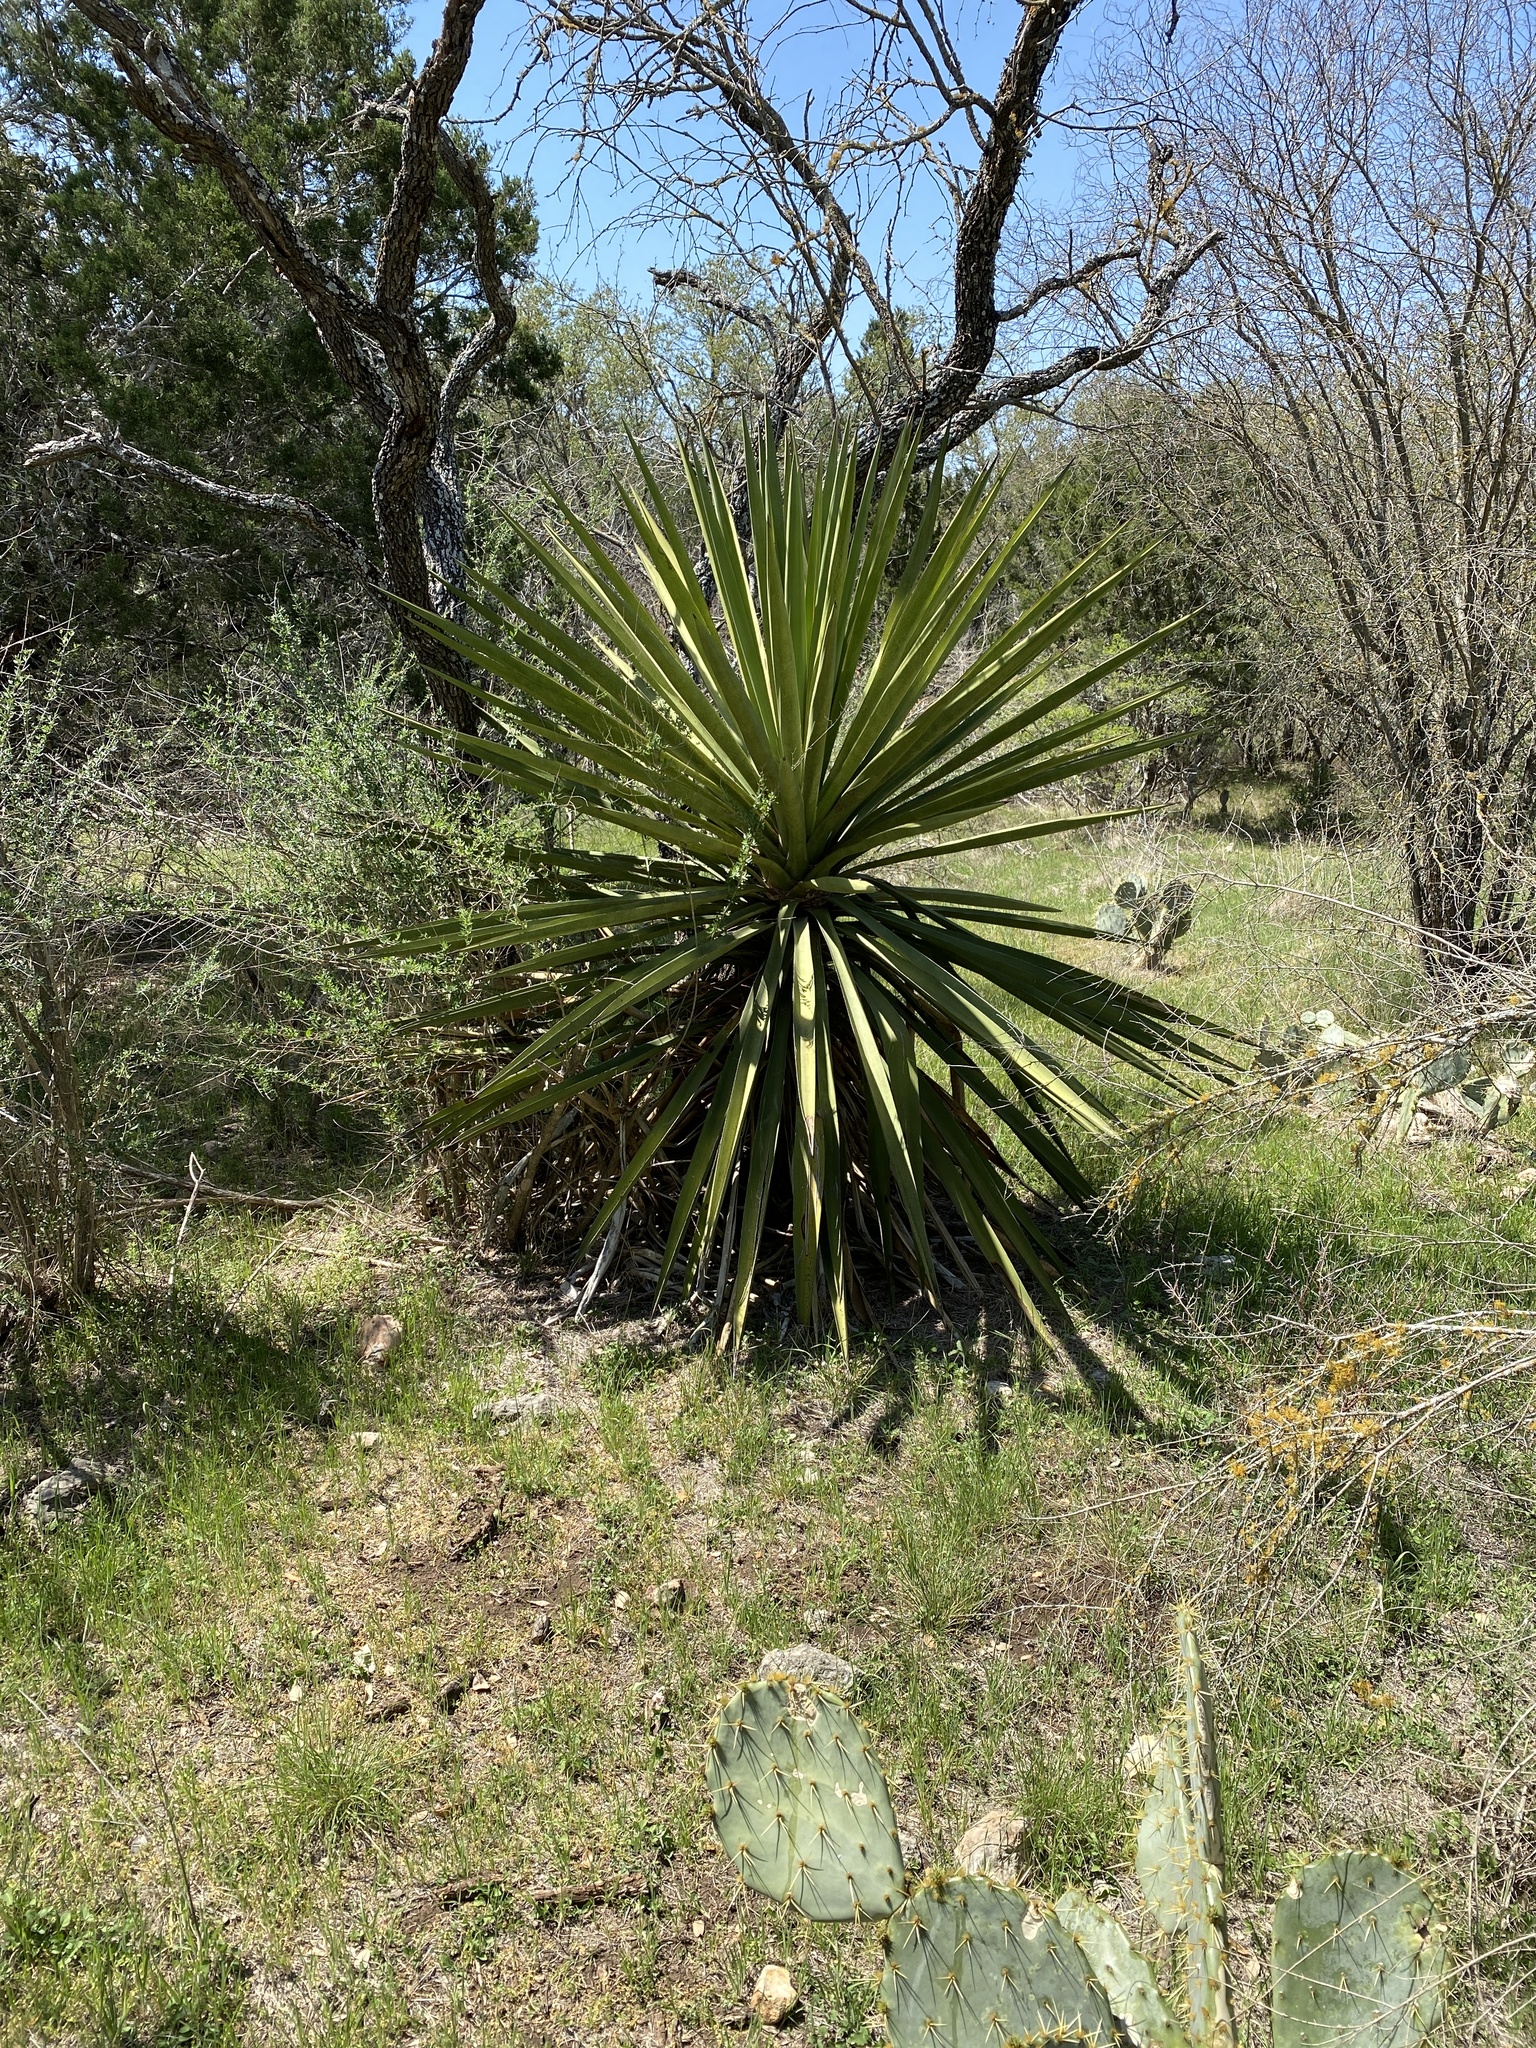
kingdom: Plantae
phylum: Tracheophyta
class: Liliopsida
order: Asparagales
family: Asparagaceae
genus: Yucca
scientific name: Yucca treculiana
